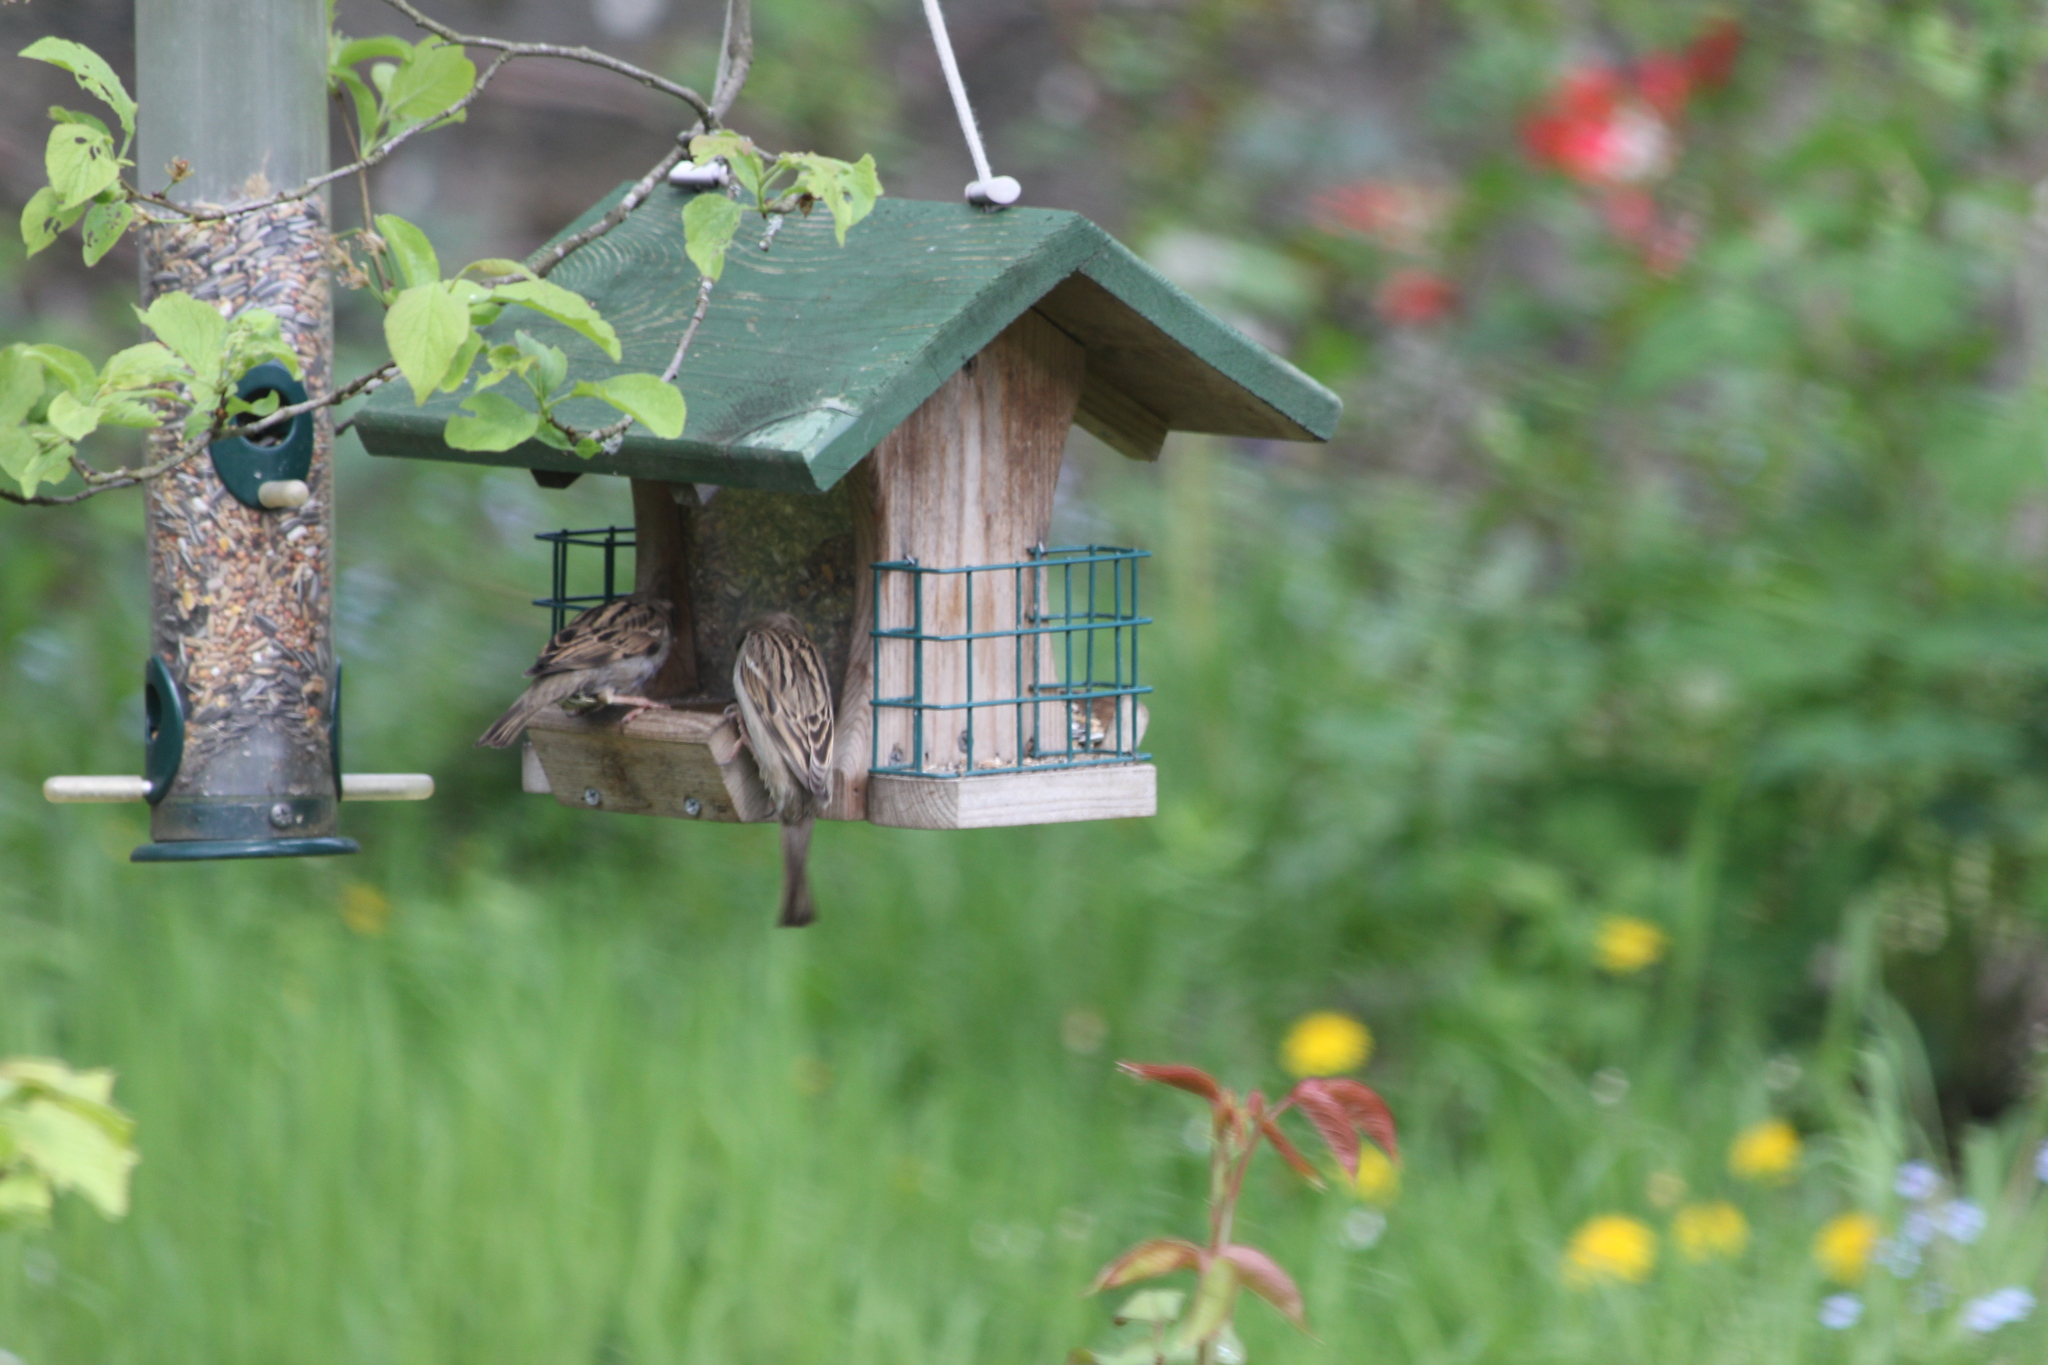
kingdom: Animalia
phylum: Chordata
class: Aves
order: Passeriformes
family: Passeridae
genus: Passer
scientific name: Passer domesticus
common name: House sparrow
